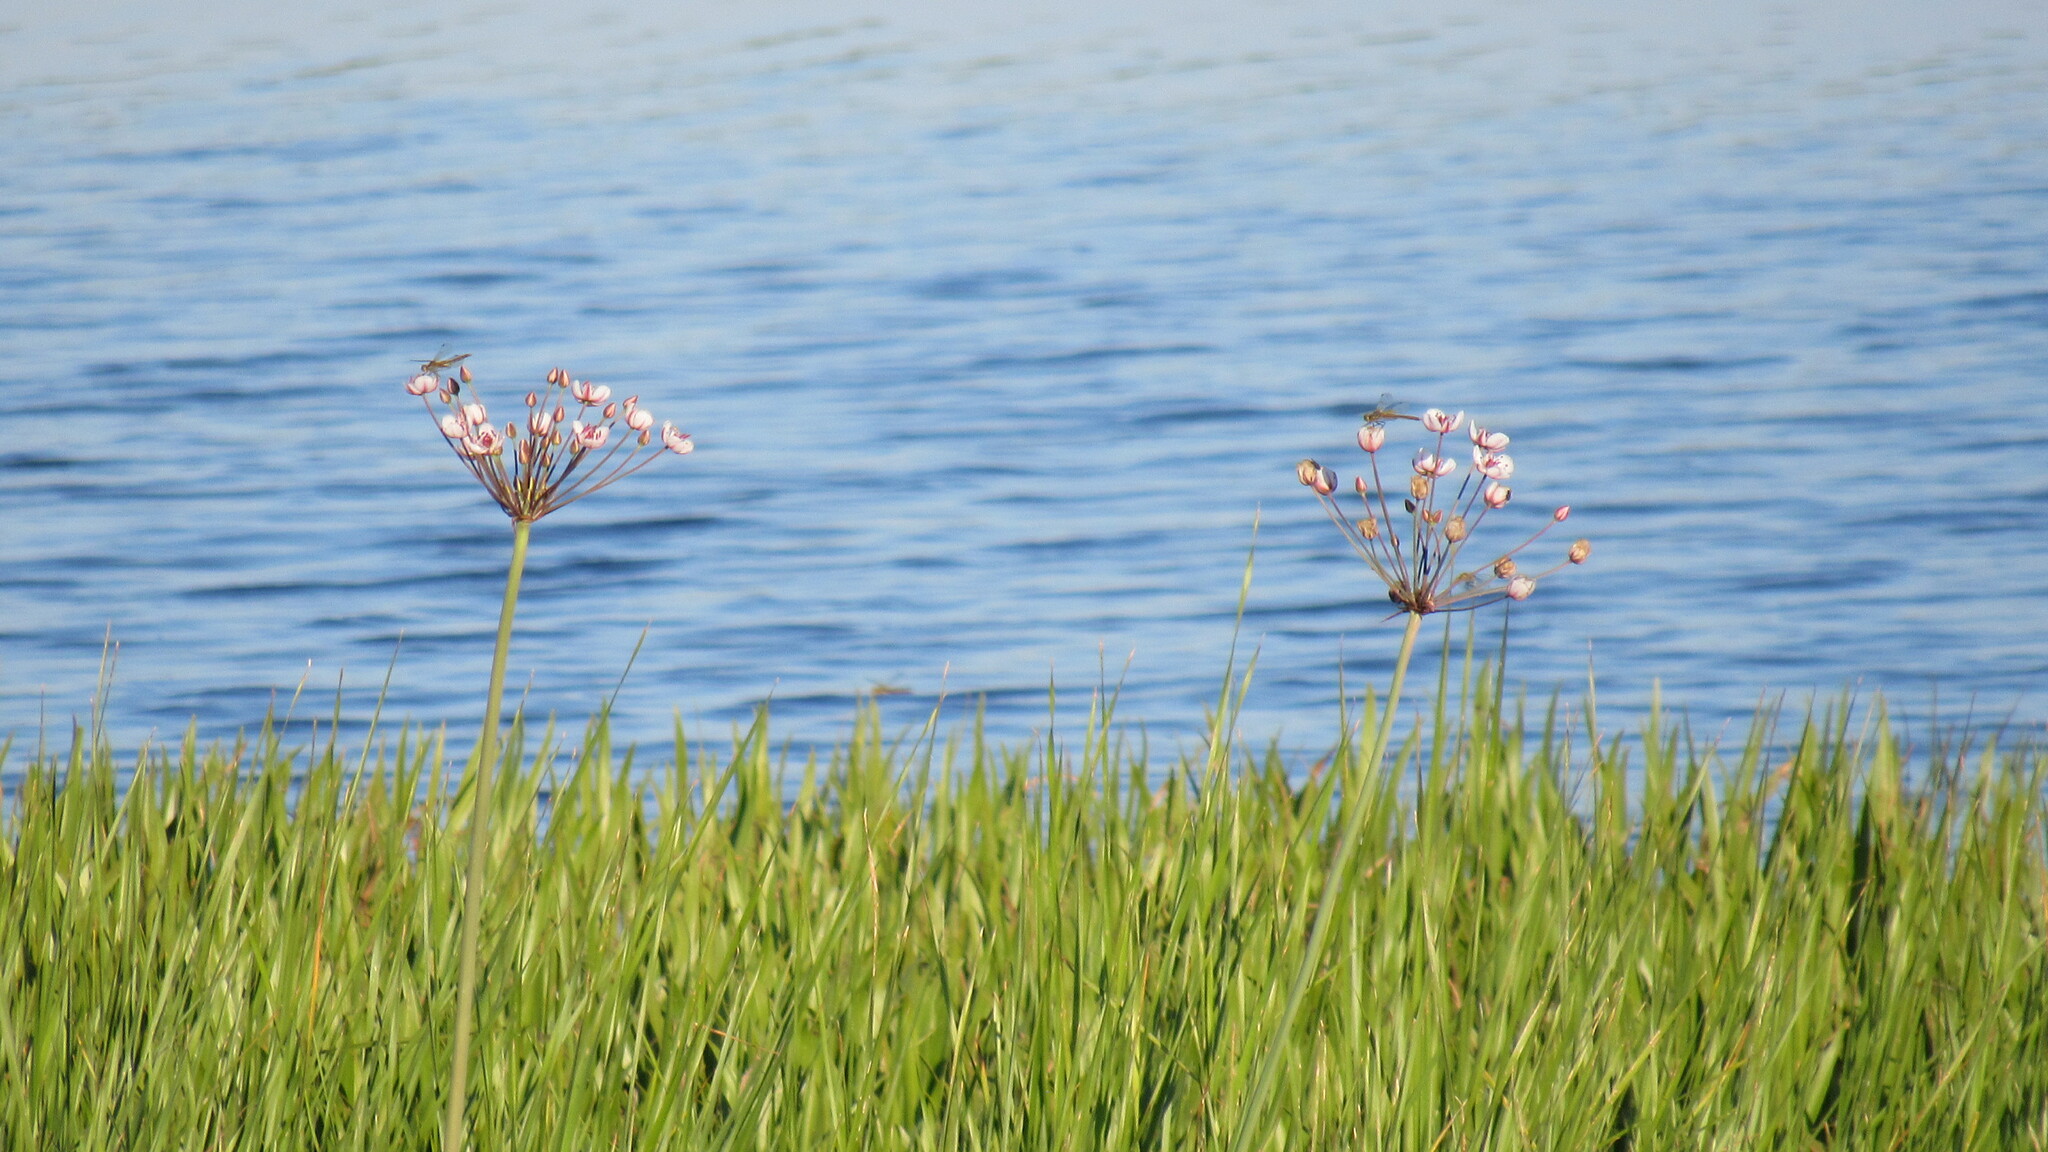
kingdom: Plantae
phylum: Tracheophyta
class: Liliopsida
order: Alismatales
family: Butomaceae
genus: Butomus
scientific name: Butomus umbellatus
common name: Flowering-rush
